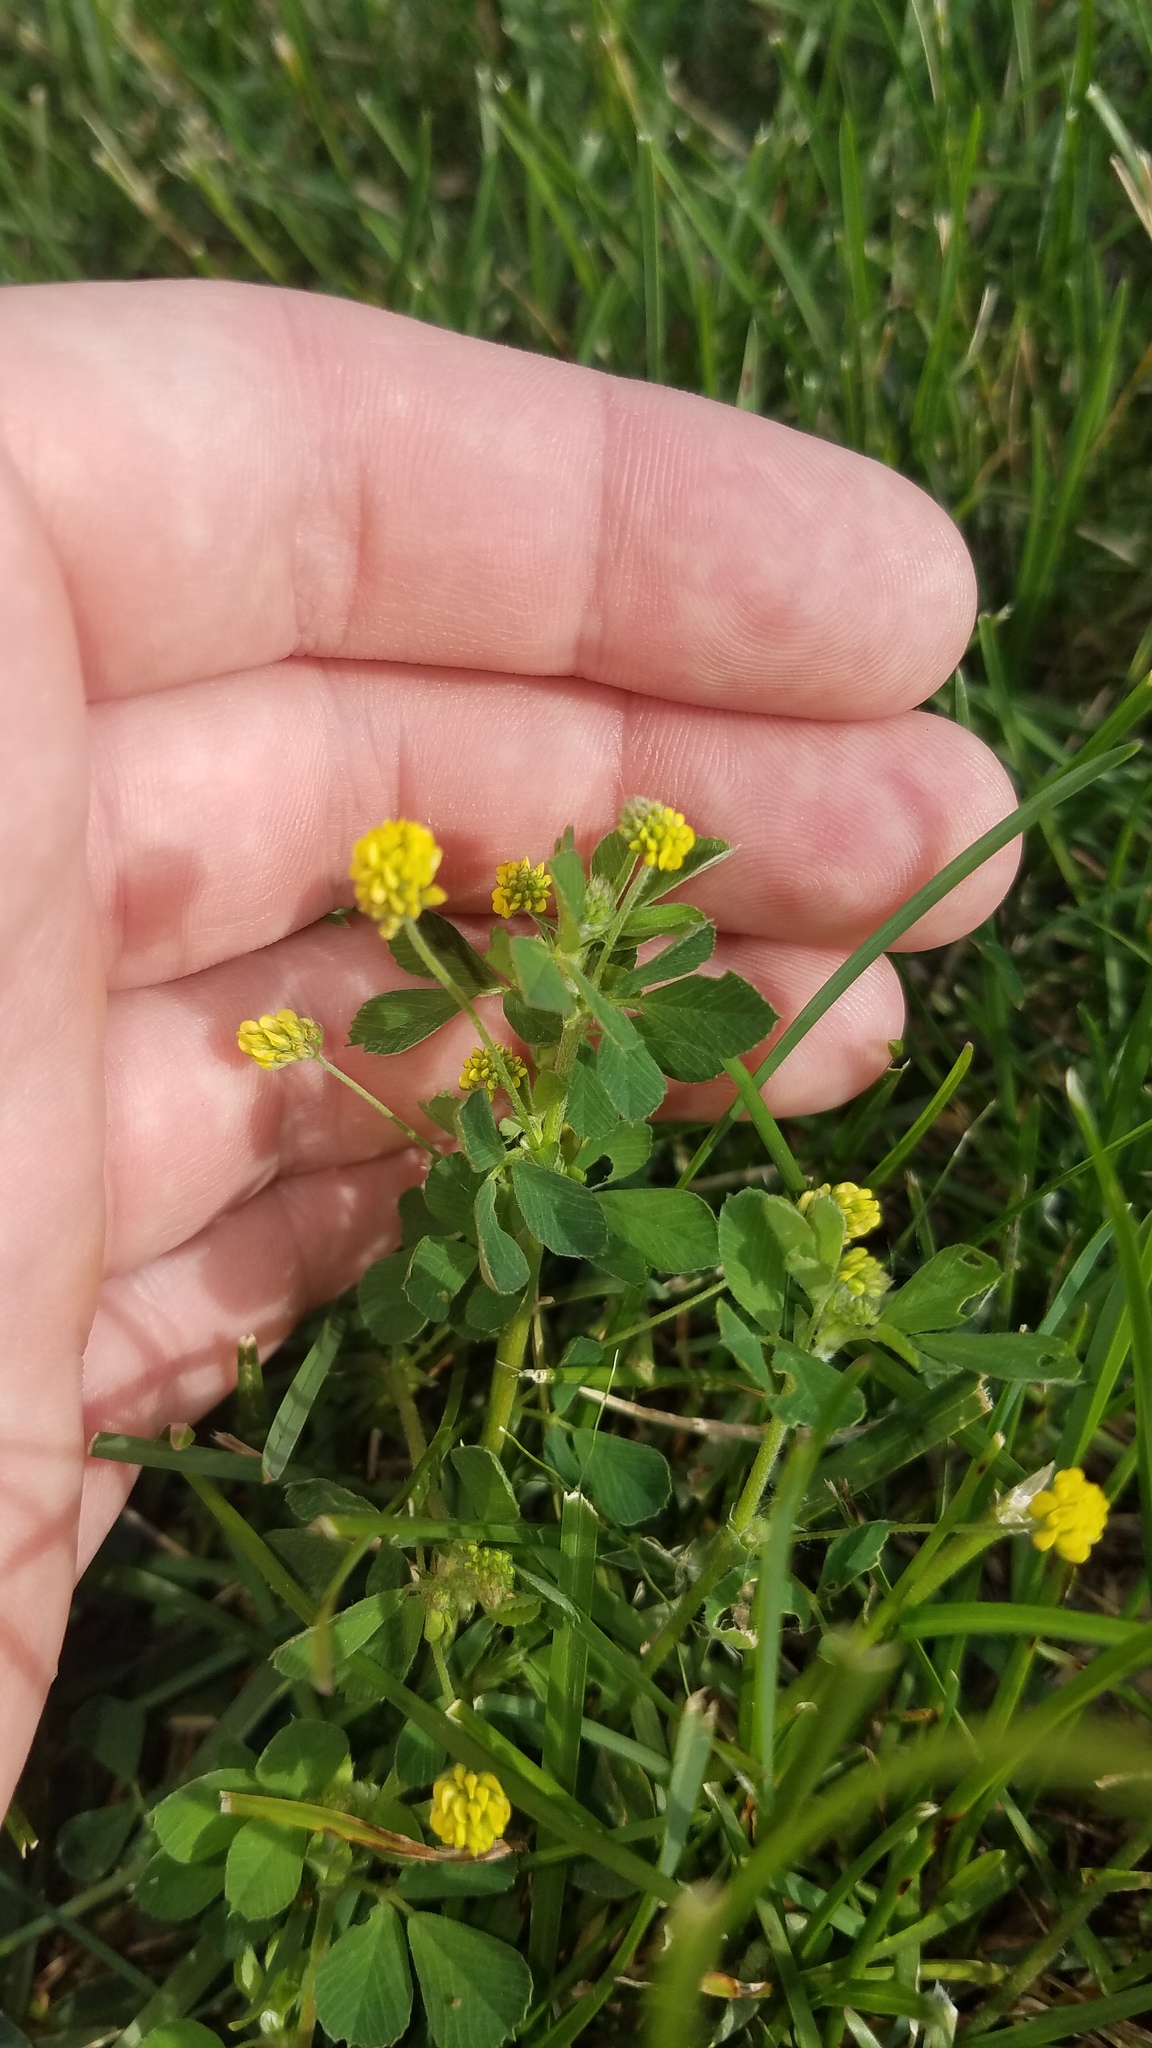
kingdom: Plantae
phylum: Tracheophyta
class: Magnoliopsida
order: Fabales
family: Fabaceae
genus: Medicago
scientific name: Medicago lupulina
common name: Black medick
